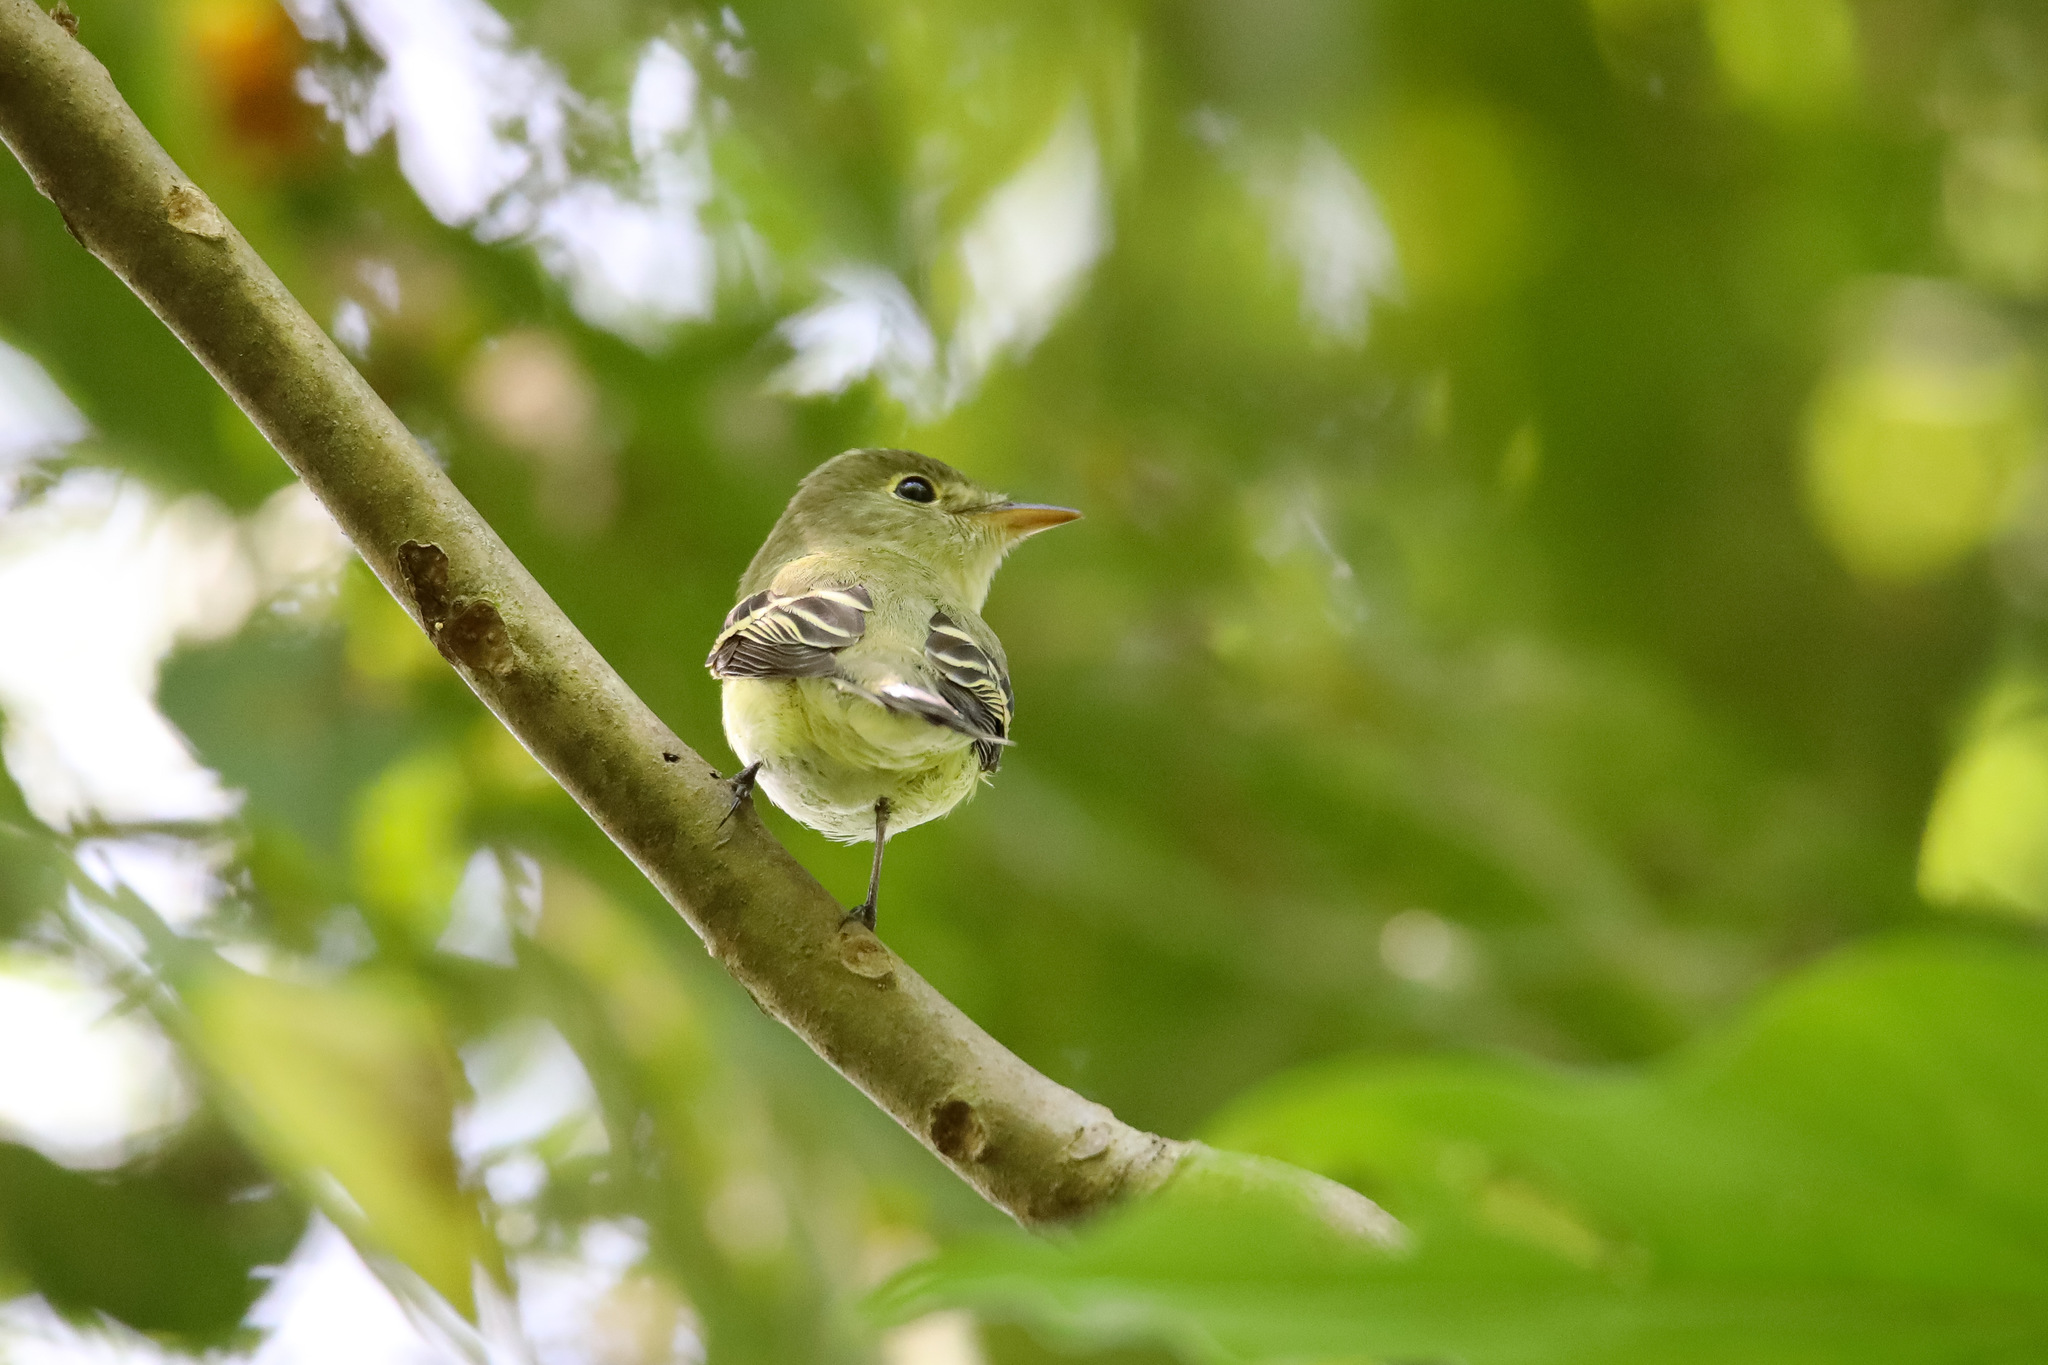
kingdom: Animalia
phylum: Chordata
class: Aves
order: Passeriformes
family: Tyrannidae
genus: Empidonax
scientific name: Empidonax virescens
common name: Acadian flycatcher
